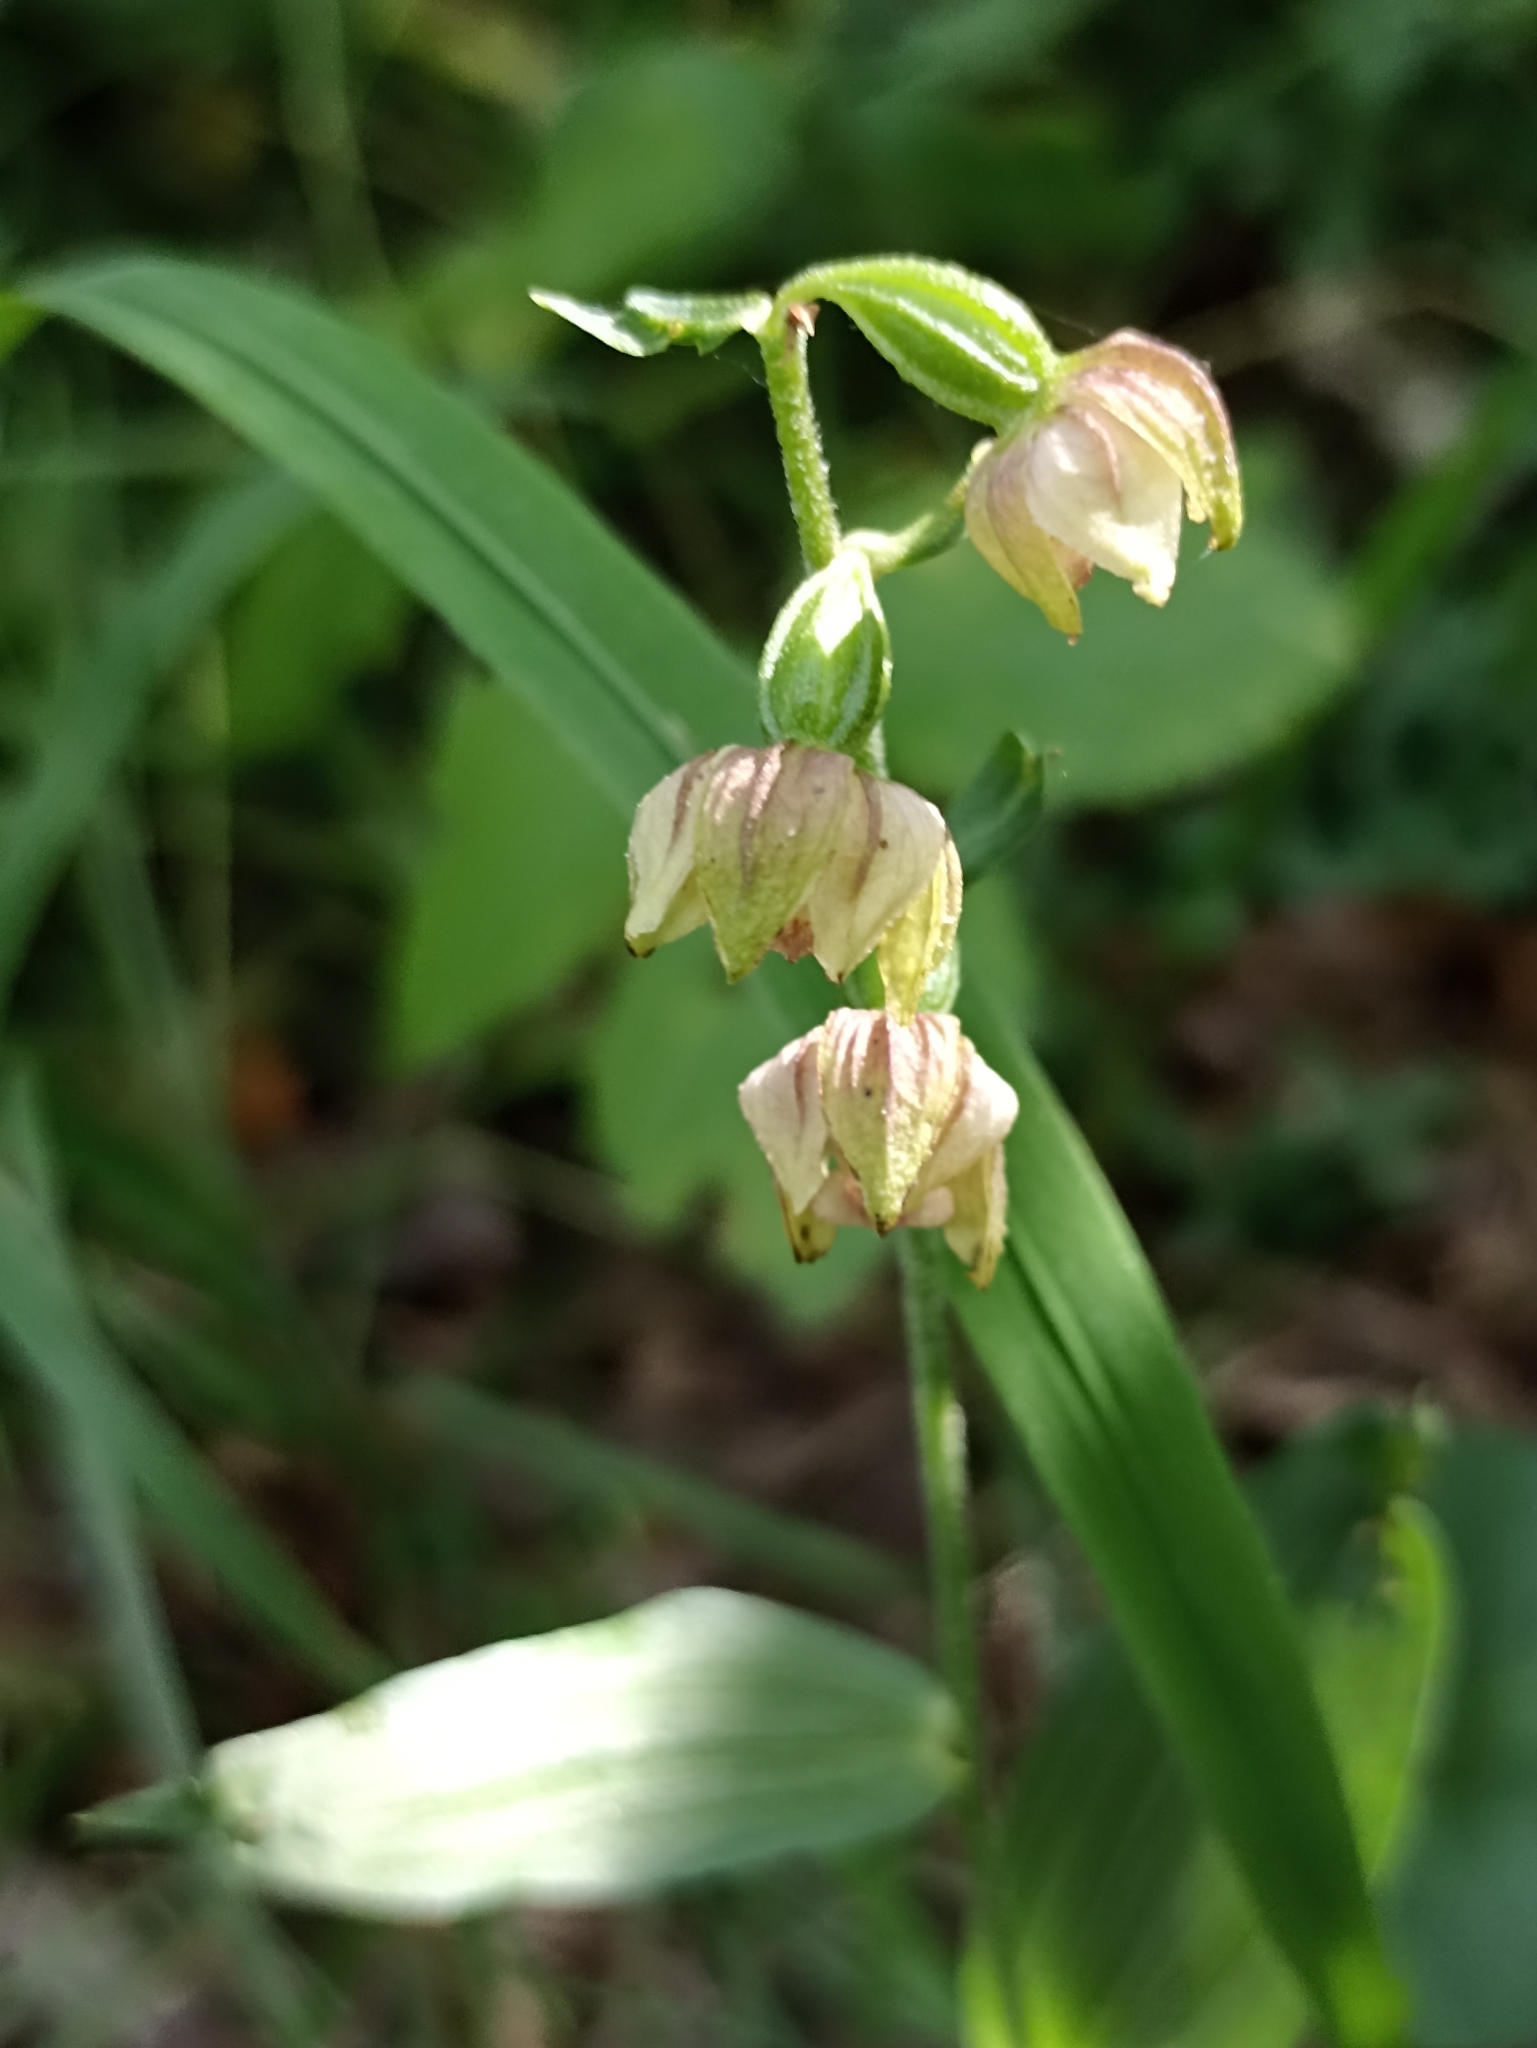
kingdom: Plantae
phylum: Tracheophyta
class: Liliopsida
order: Asparagales
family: Orchidaceae
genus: Epipactis
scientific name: Epipactis helleborine
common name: Broad-leaved helleborine
